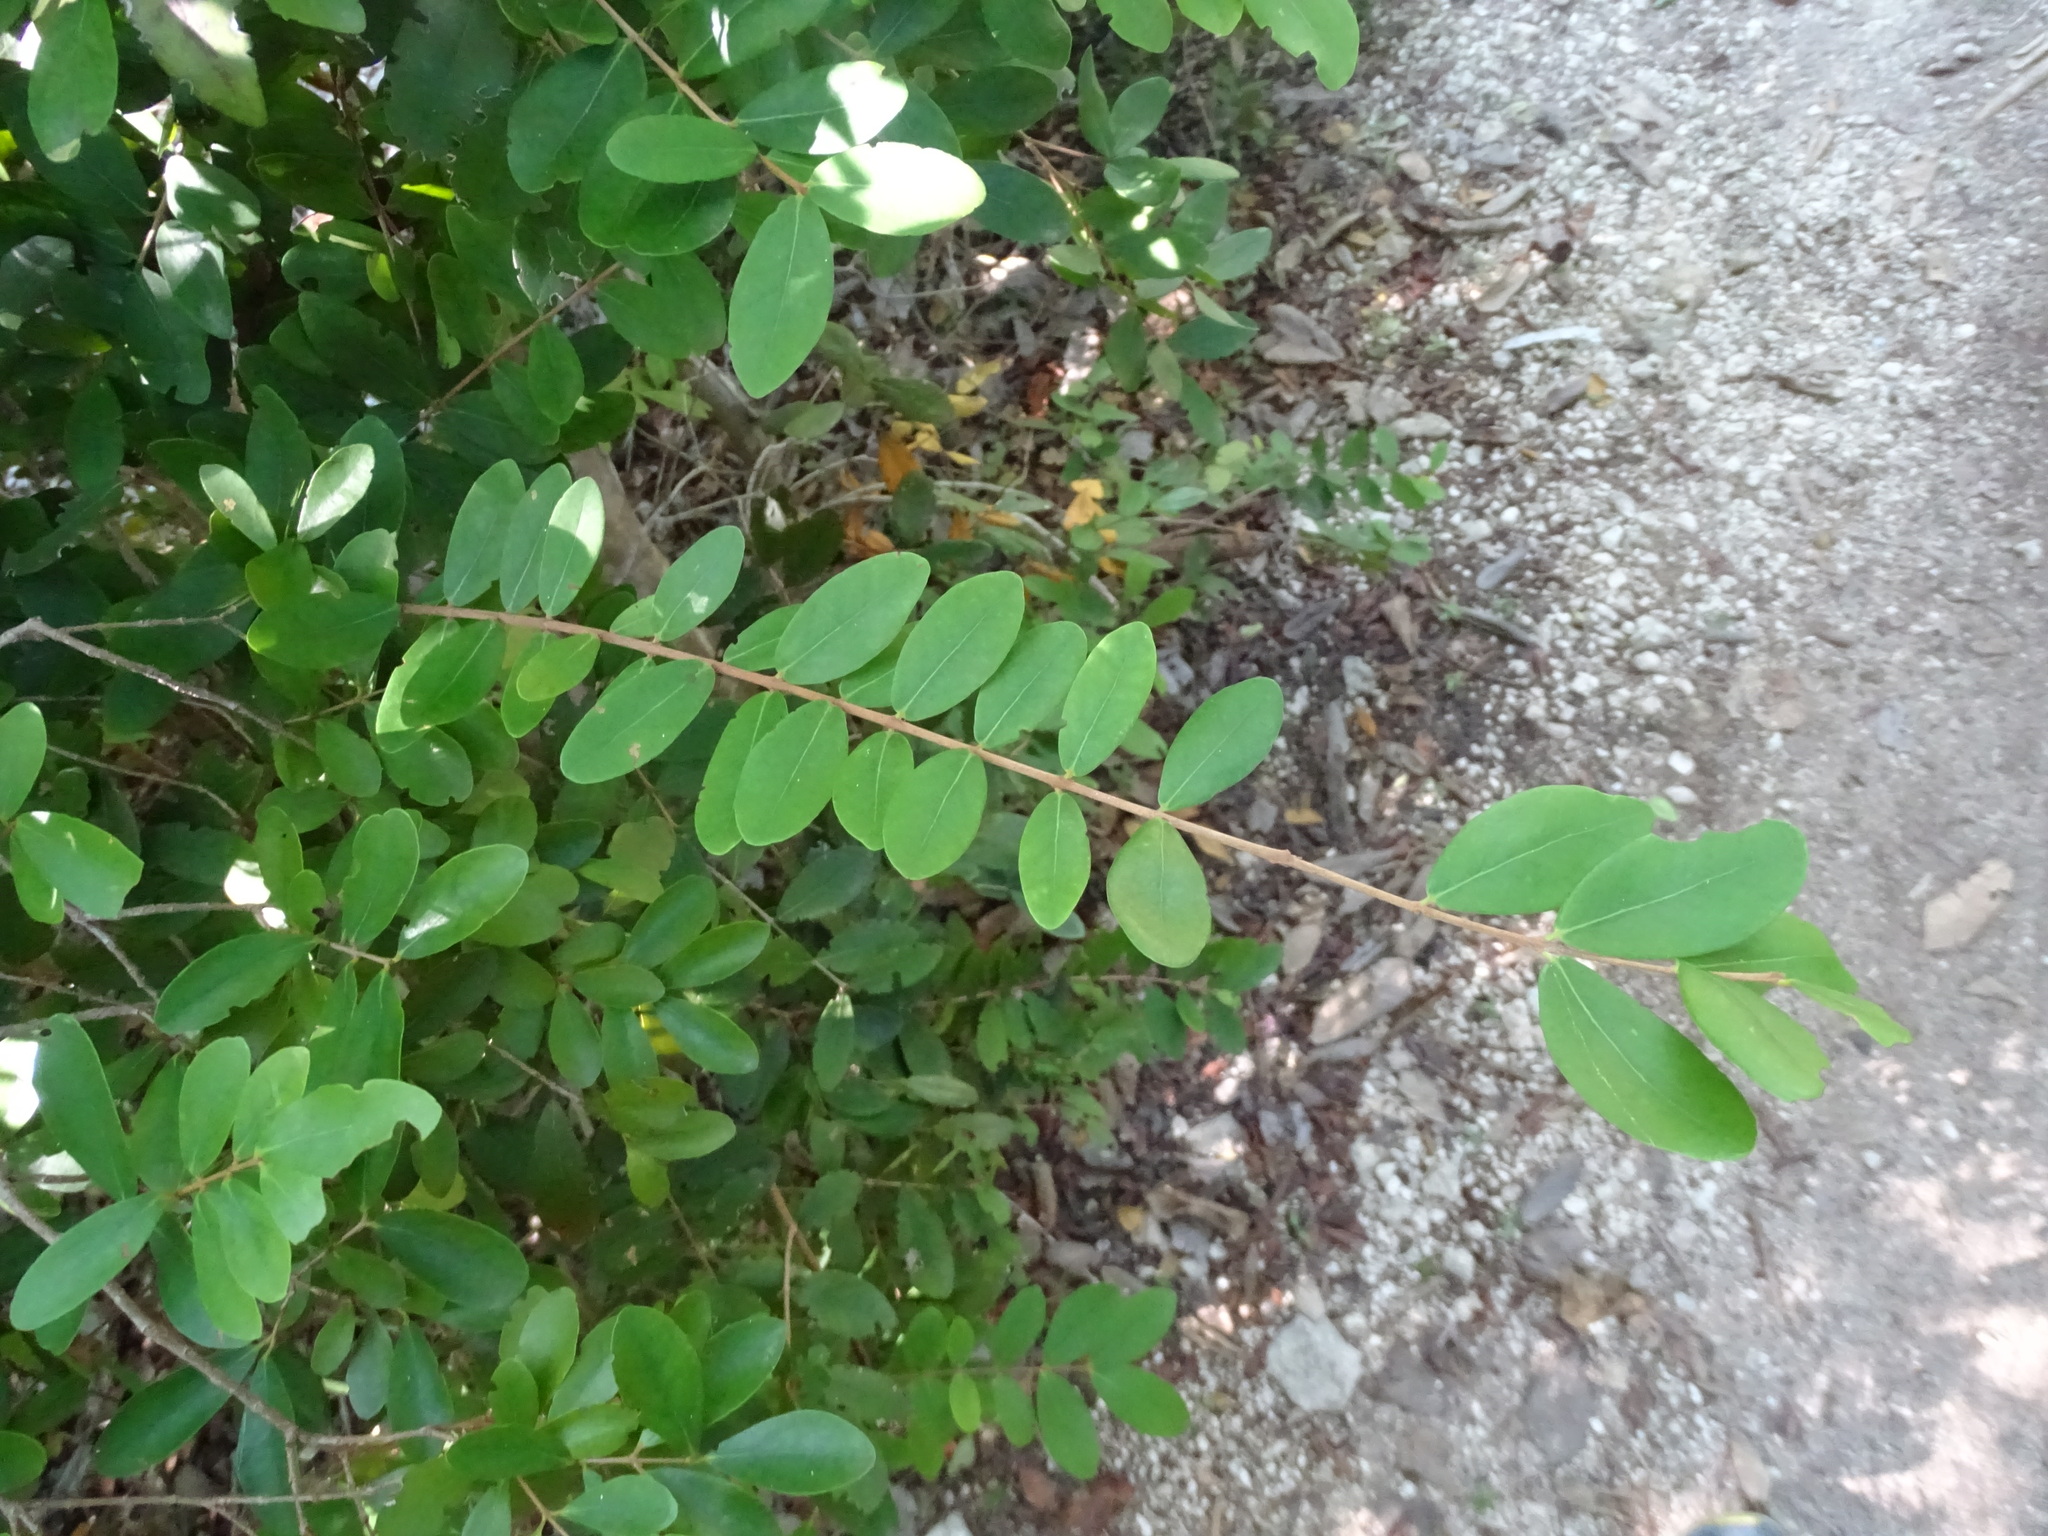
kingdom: Plantae
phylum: Tracheophyta
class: Magnoliopsida
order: Myrtales
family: Myrtaceae
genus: Eugenia
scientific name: Eugenia foetida
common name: White wattling
